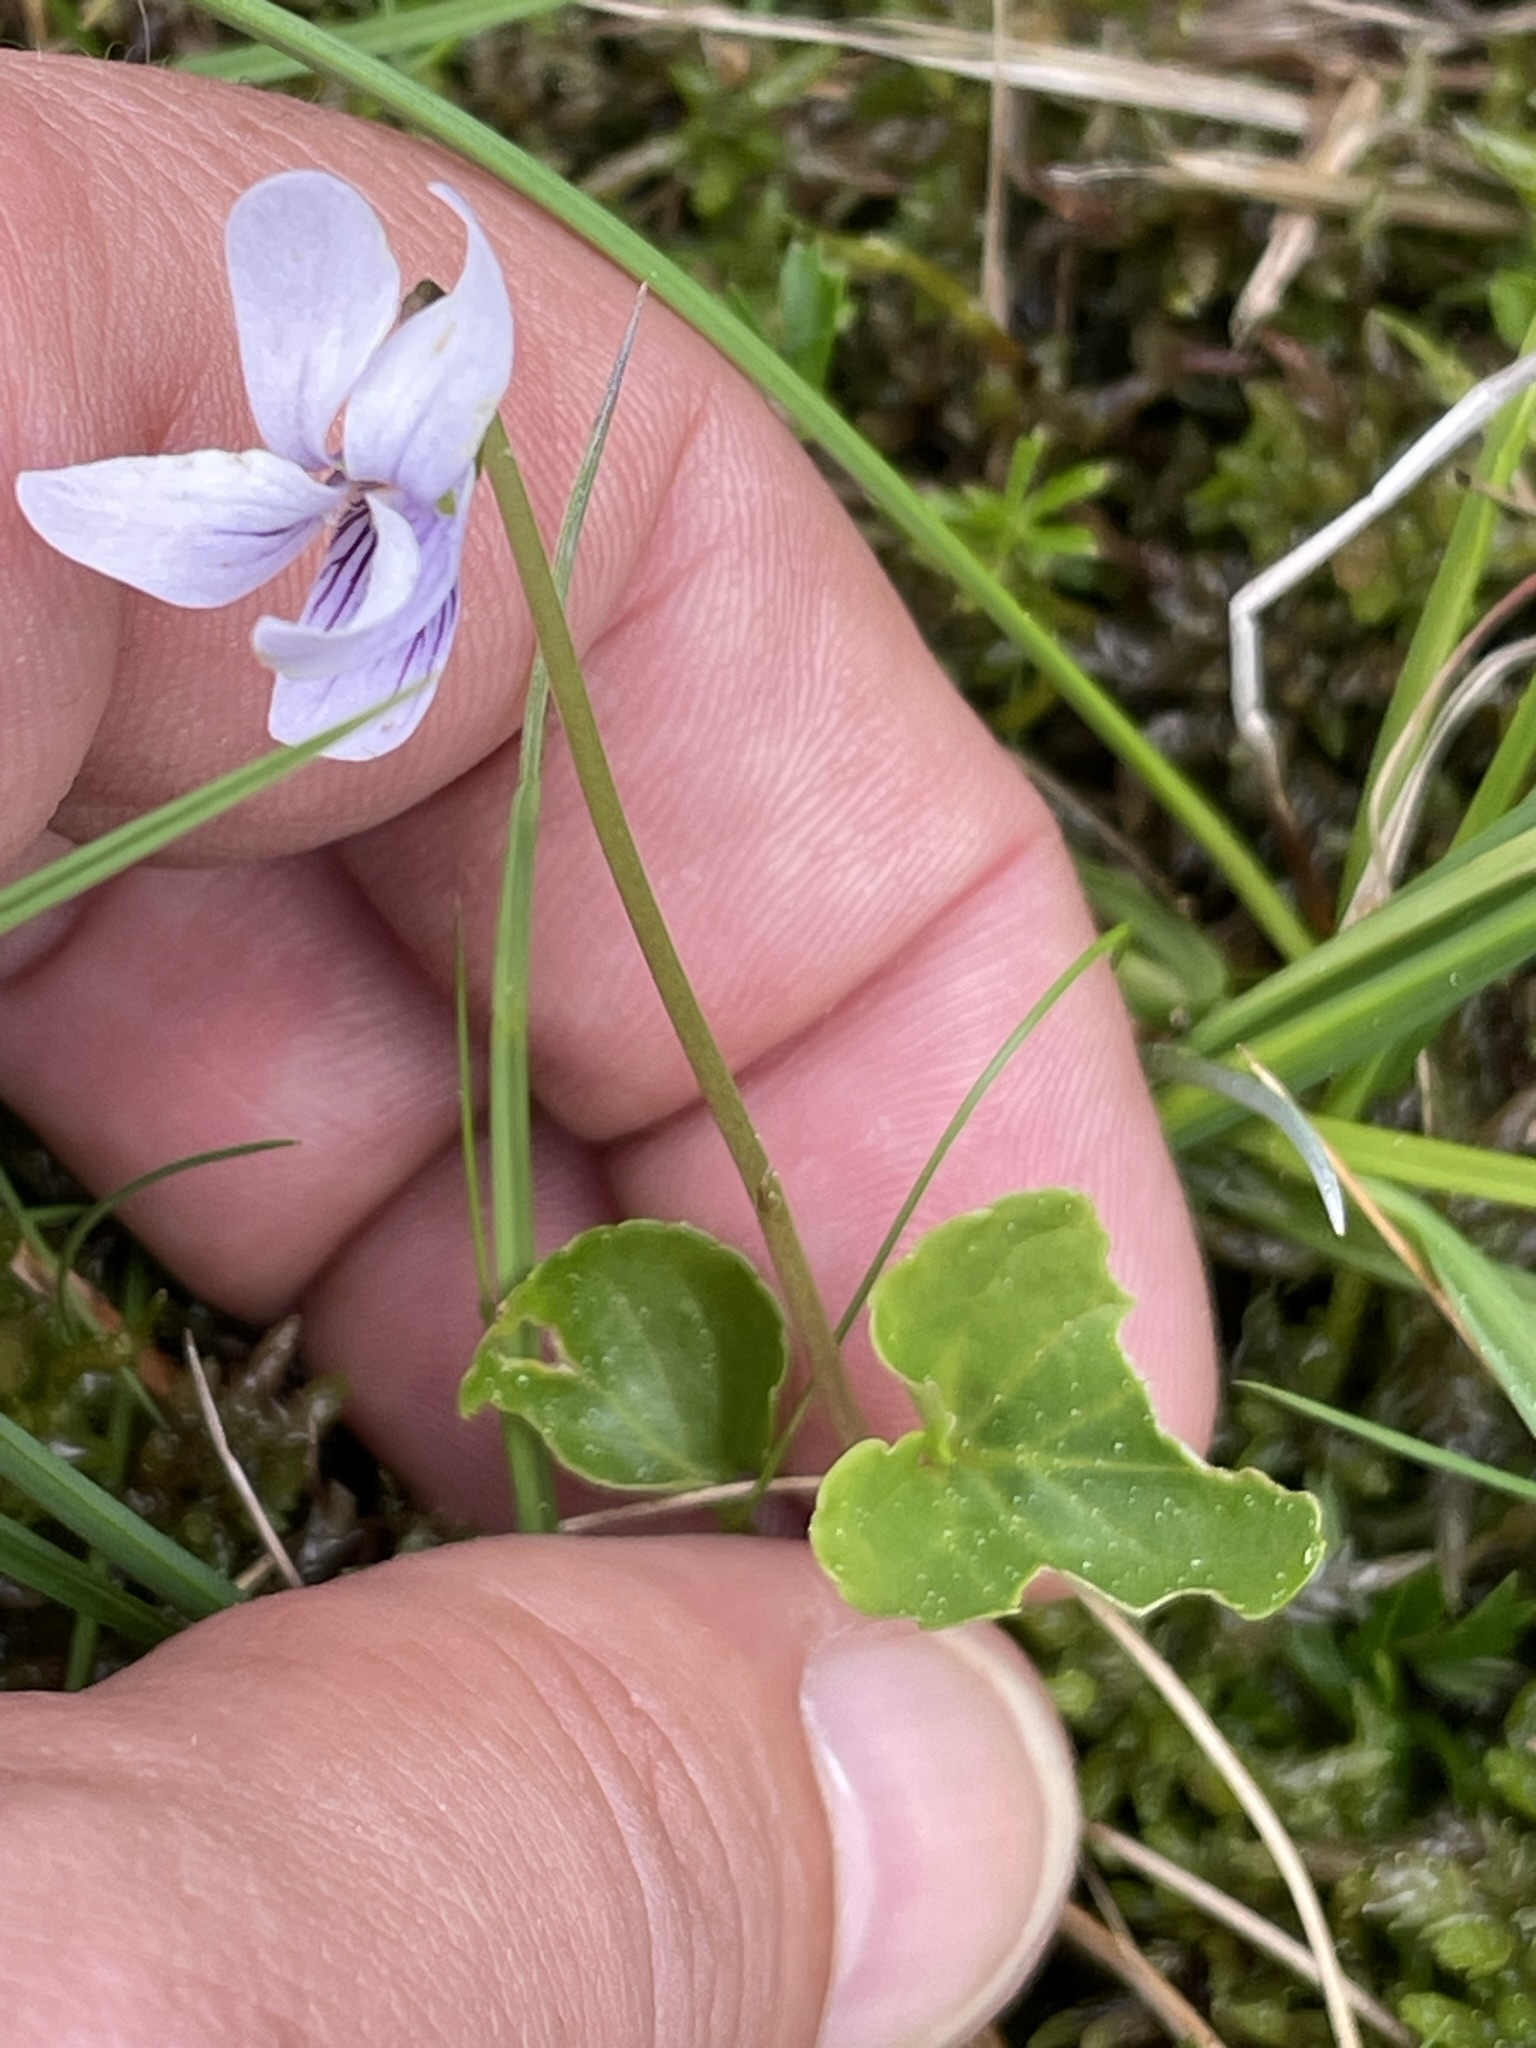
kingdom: Plantae
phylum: Tracheophyta
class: Magnoliopsida
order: Malpighiales
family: Violaceae
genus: Viola
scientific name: Viola palustris
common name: Marsh violet
